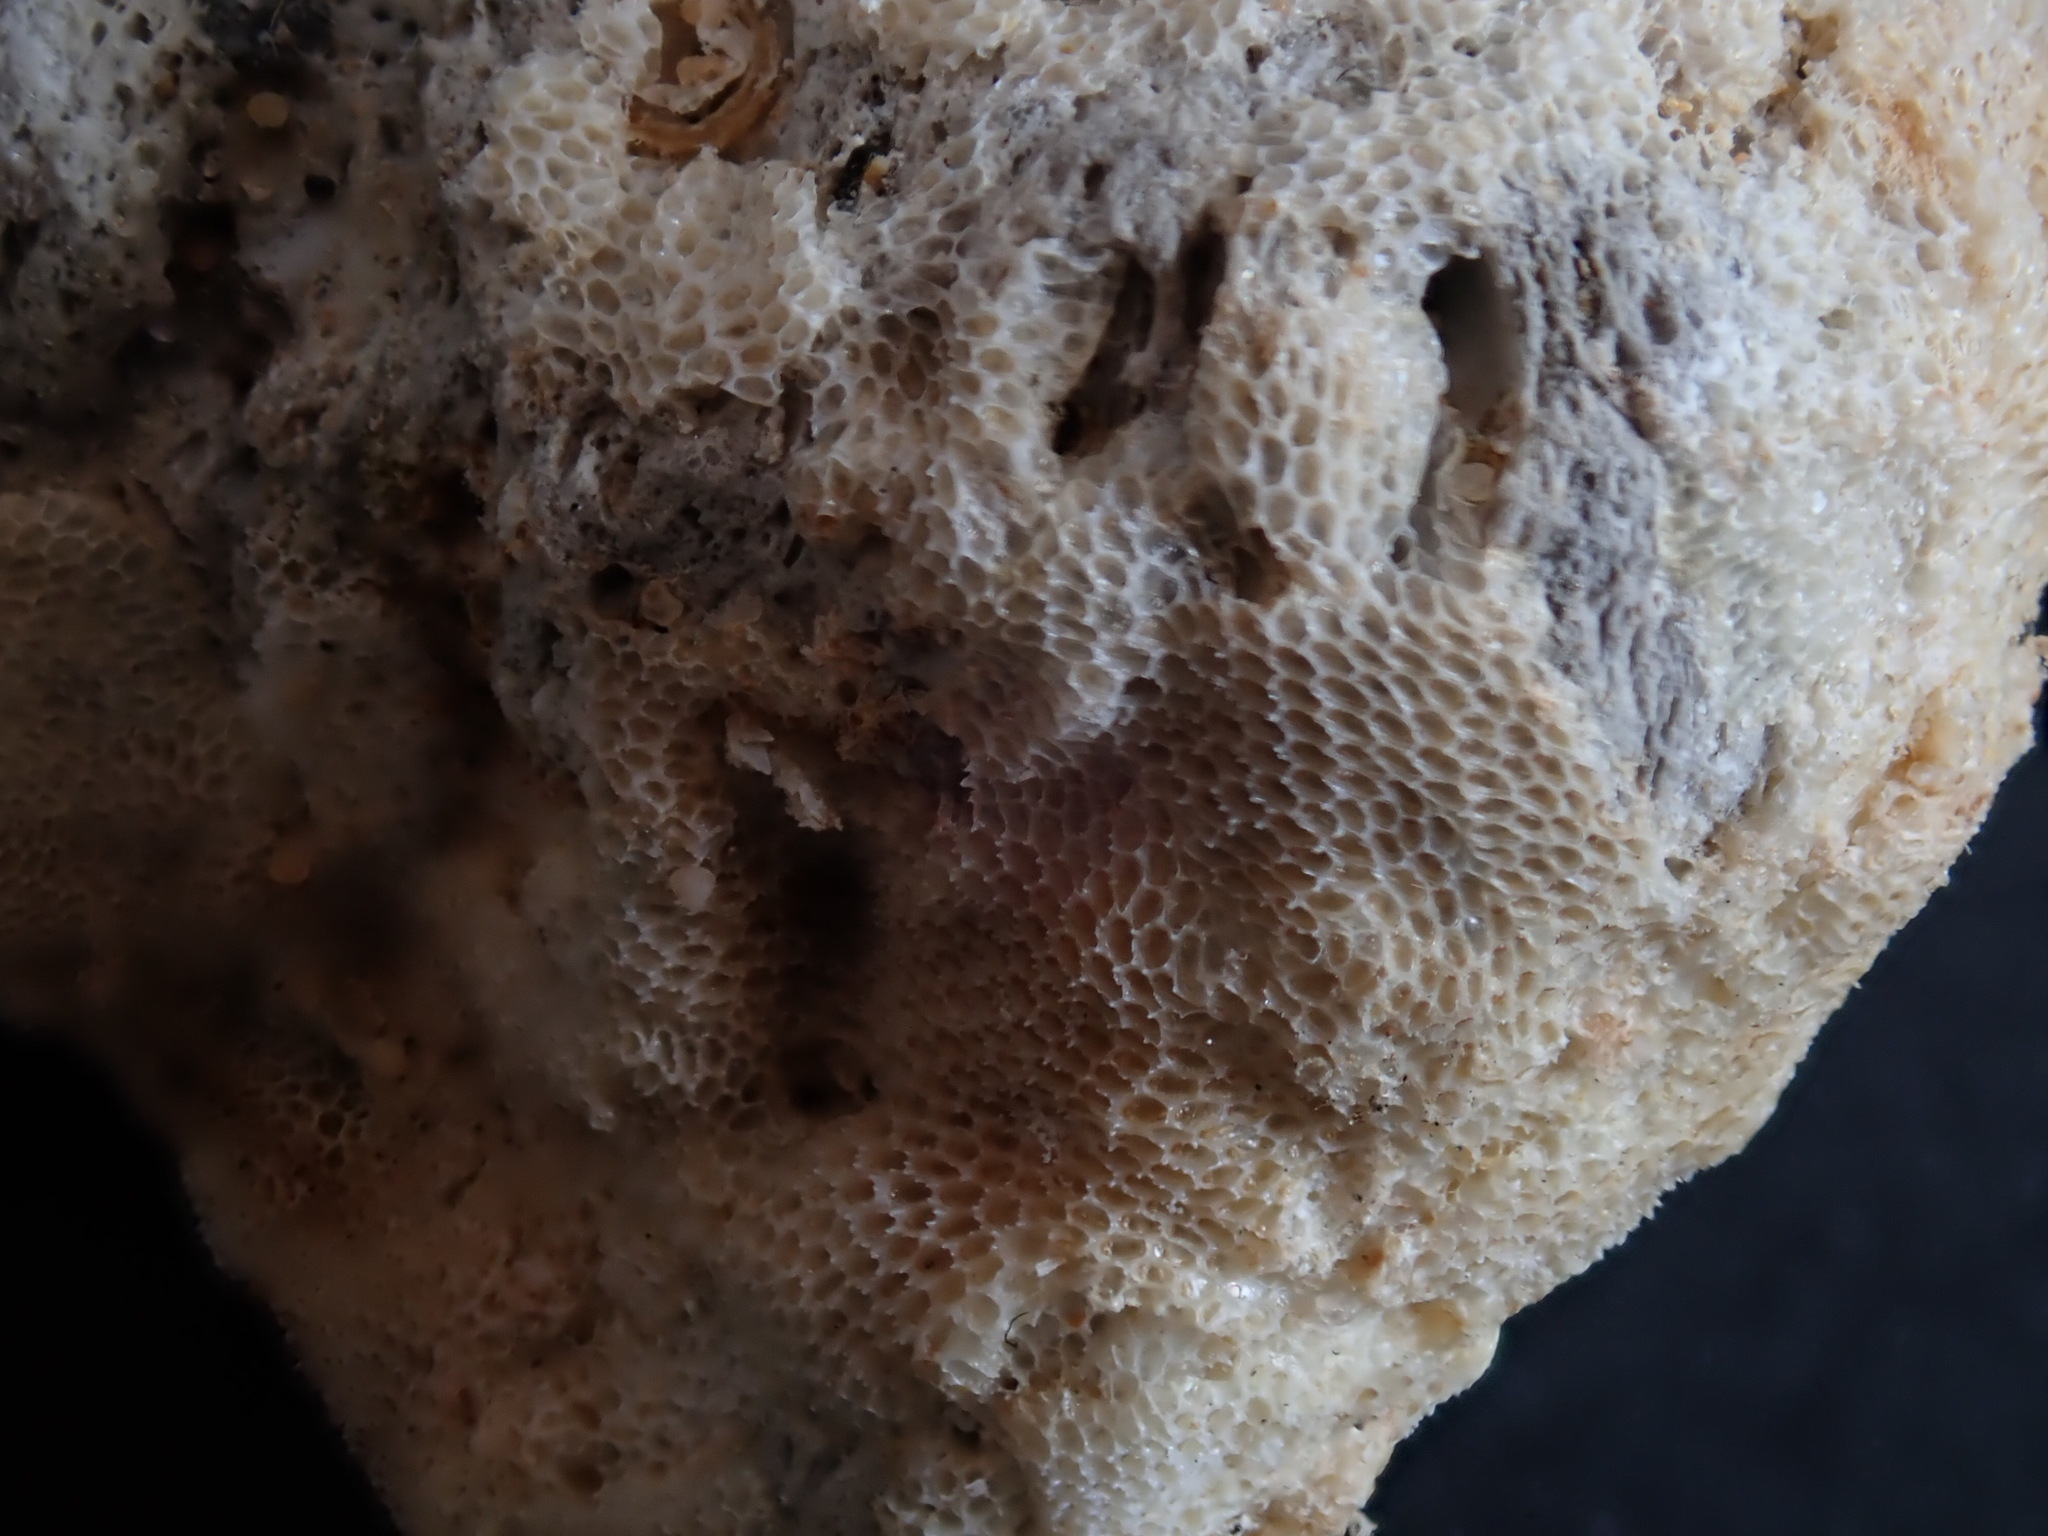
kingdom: Animalia
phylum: Bryozoa
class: Gymnolaemata
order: Cheilostomatida
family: Membraniporidae
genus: Jellyella
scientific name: Jellyella eburnea
